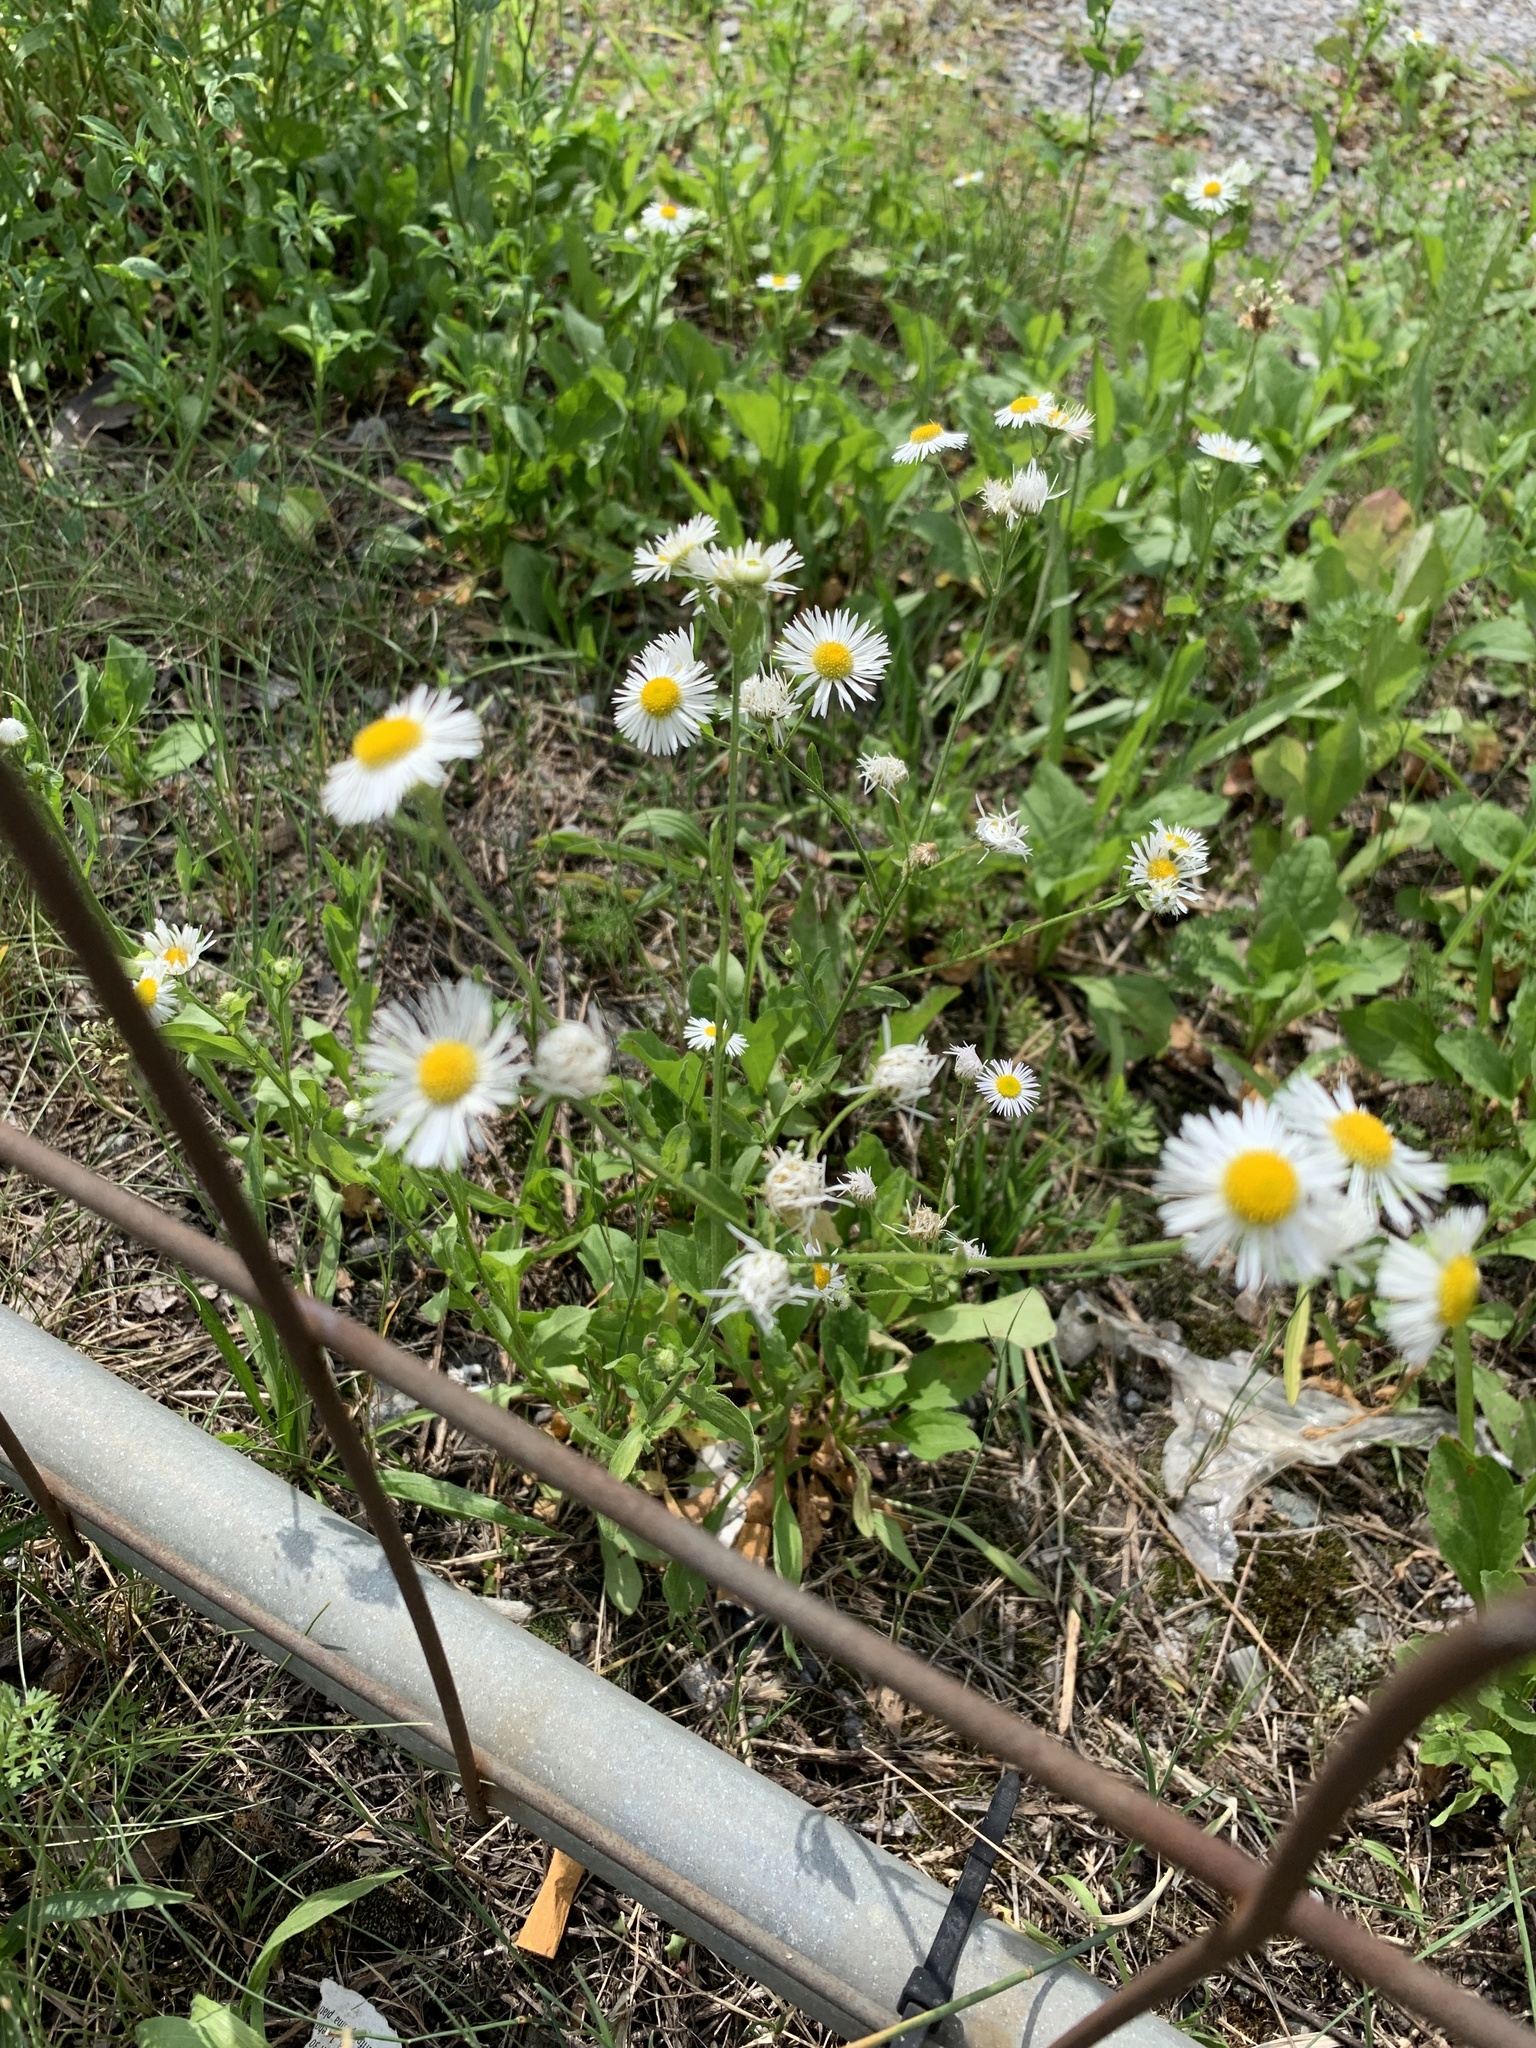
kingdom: Plantae
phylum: Tracheophyta
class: Magnoliopsida
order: Asterales
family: Asteraceae
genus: Erigeron
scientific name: Erigeron annuus
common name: Tall fleabane
